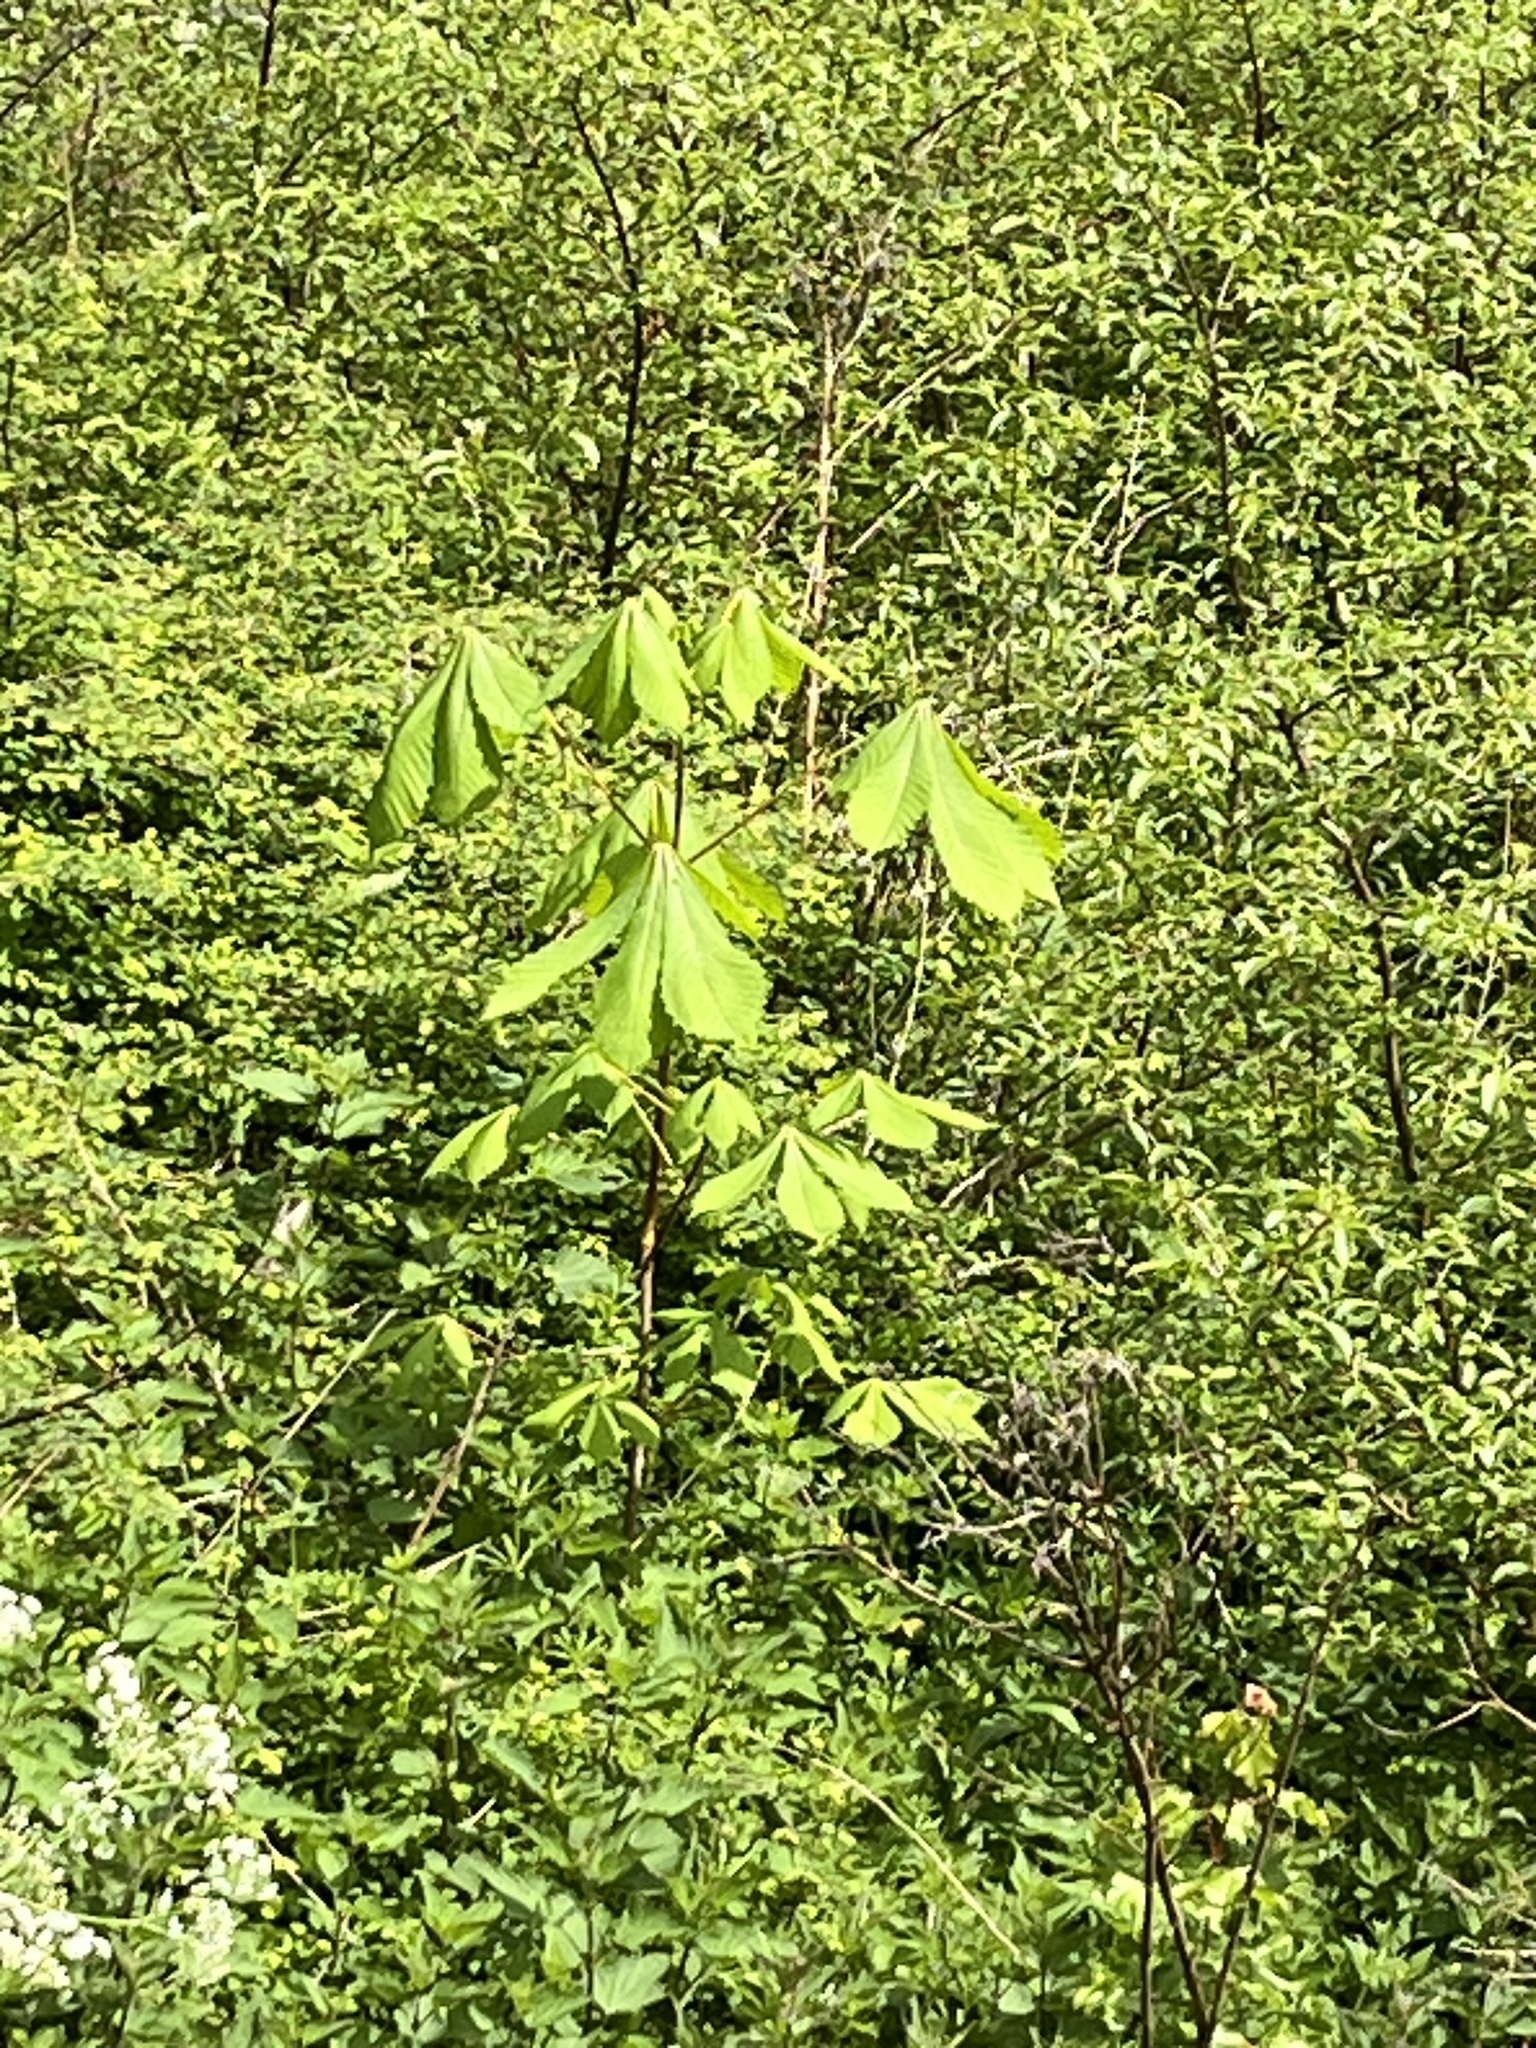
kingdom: Plantae
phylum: Tracheophyta
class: Magnoliopsida
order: Sapindales
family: Sapindaceae
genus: Aesculus
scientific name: Aesculus hippocastanum
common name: Horse-chestnut
